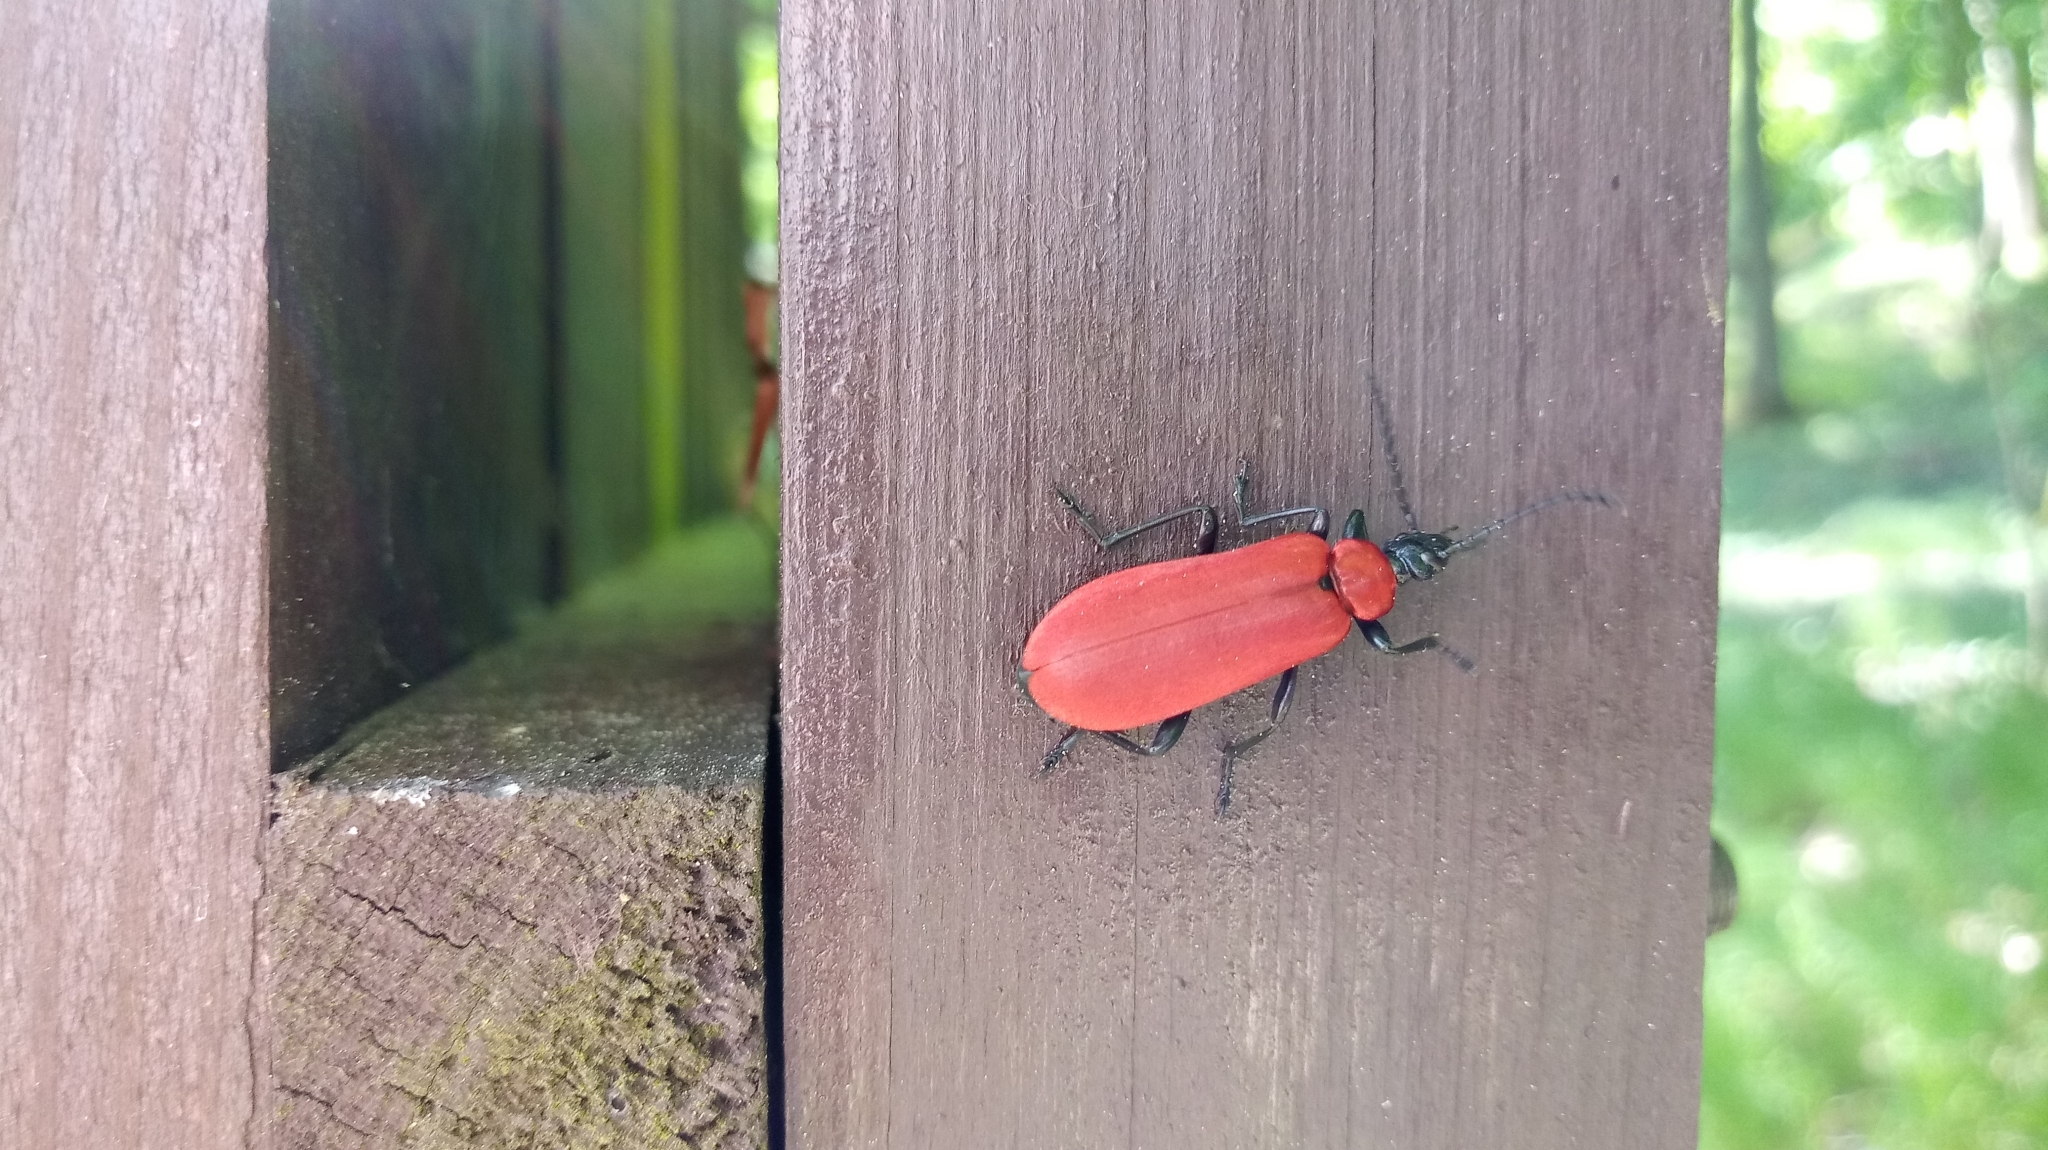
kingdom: Animalia
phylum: Arthropoda
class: Insecta
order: Coleoptera
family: Pyrochroidae
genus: Pyrochroa
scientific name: Pyrochroa coccinea
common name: Black-headed cardinal beetle
